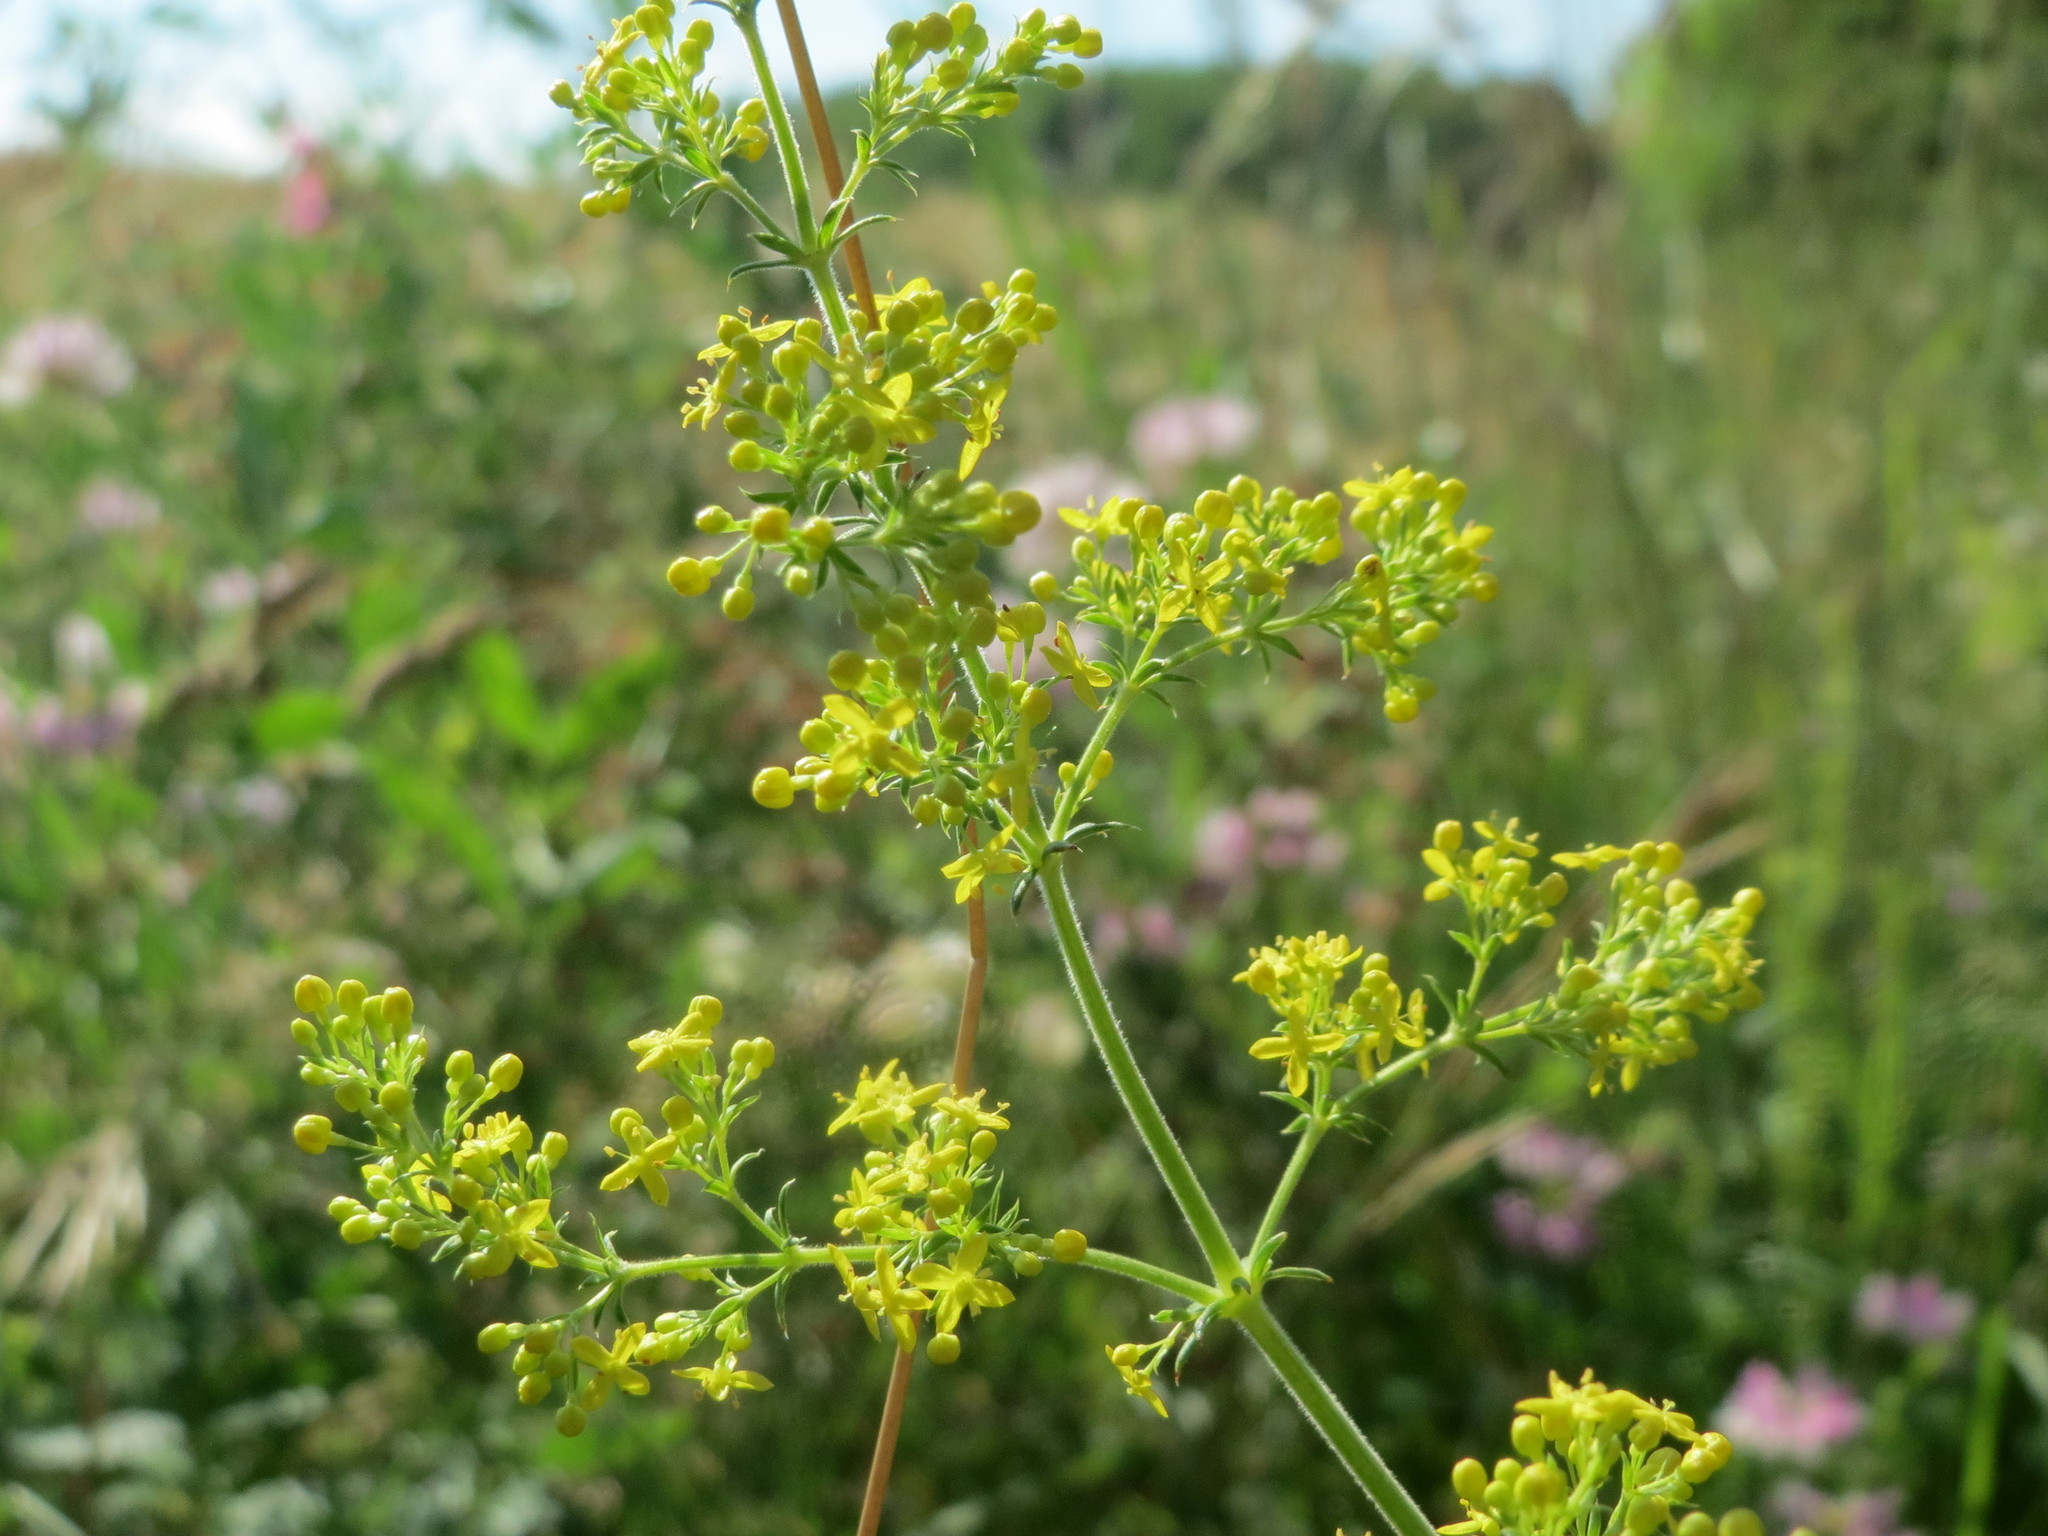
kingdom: Plantae
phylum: Tracheophyta
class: Magnoliopsida
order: Gentianales
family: Rubiaceae
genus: Galium
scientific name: Galium verum
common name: Lady's bedstraw
